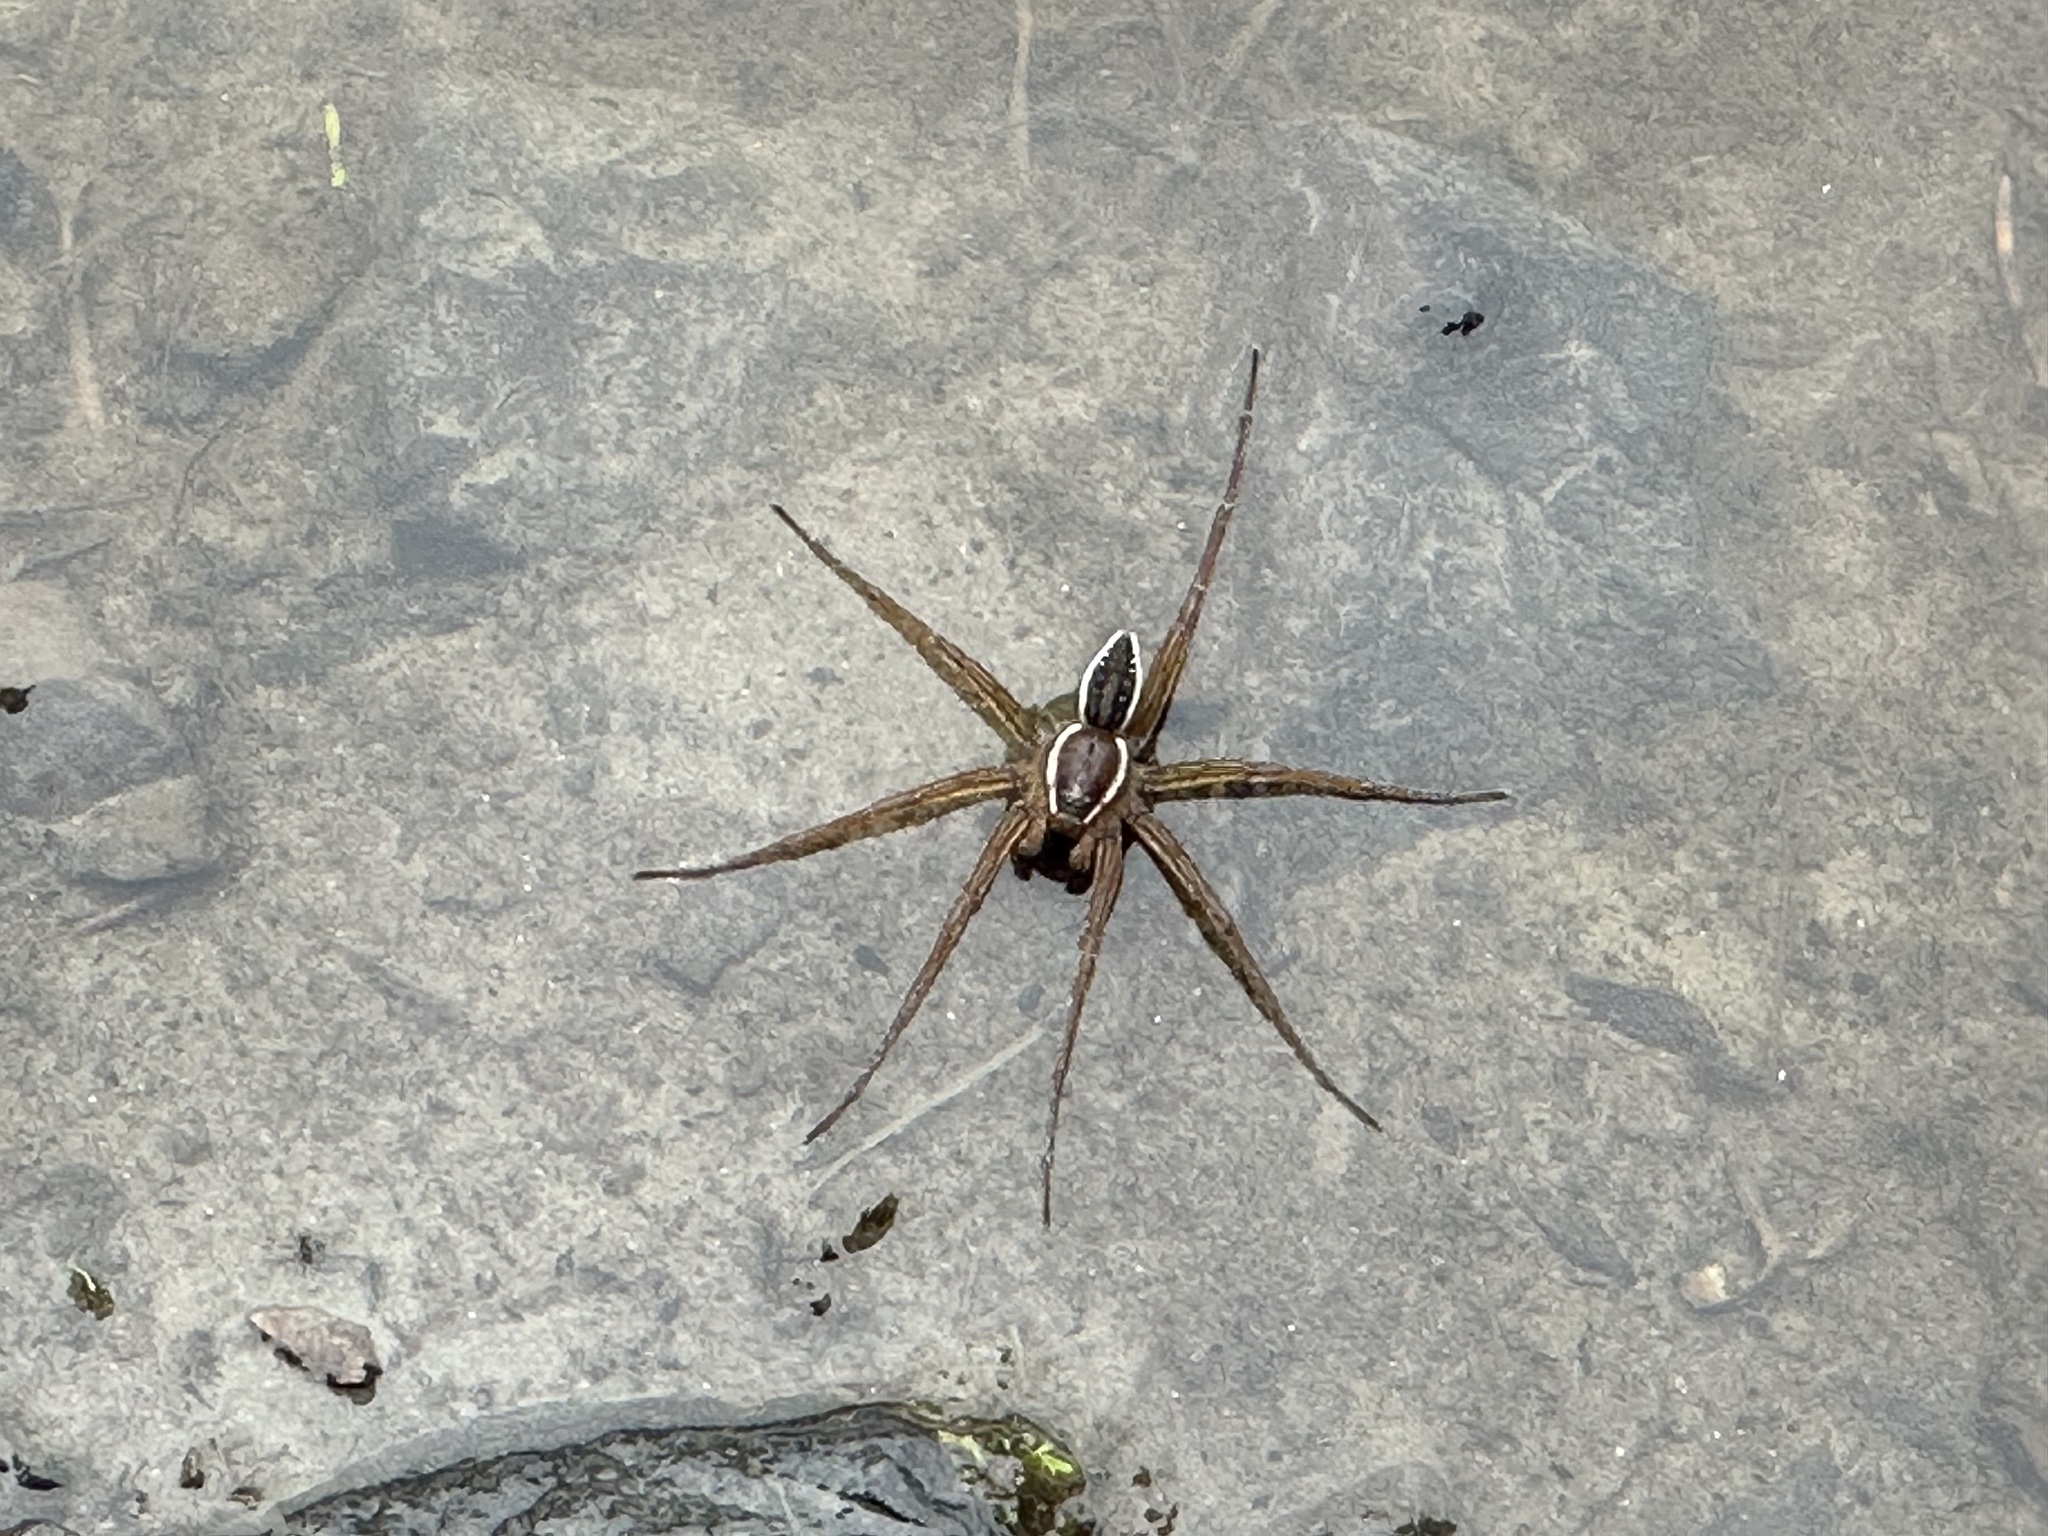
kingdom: Animalia
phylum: Arthropoda
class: Arachnida
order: Araneae
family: Pisauridae
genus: Dolomedes
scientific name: Dolomedes triton
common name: Six-spotted fishing spider
